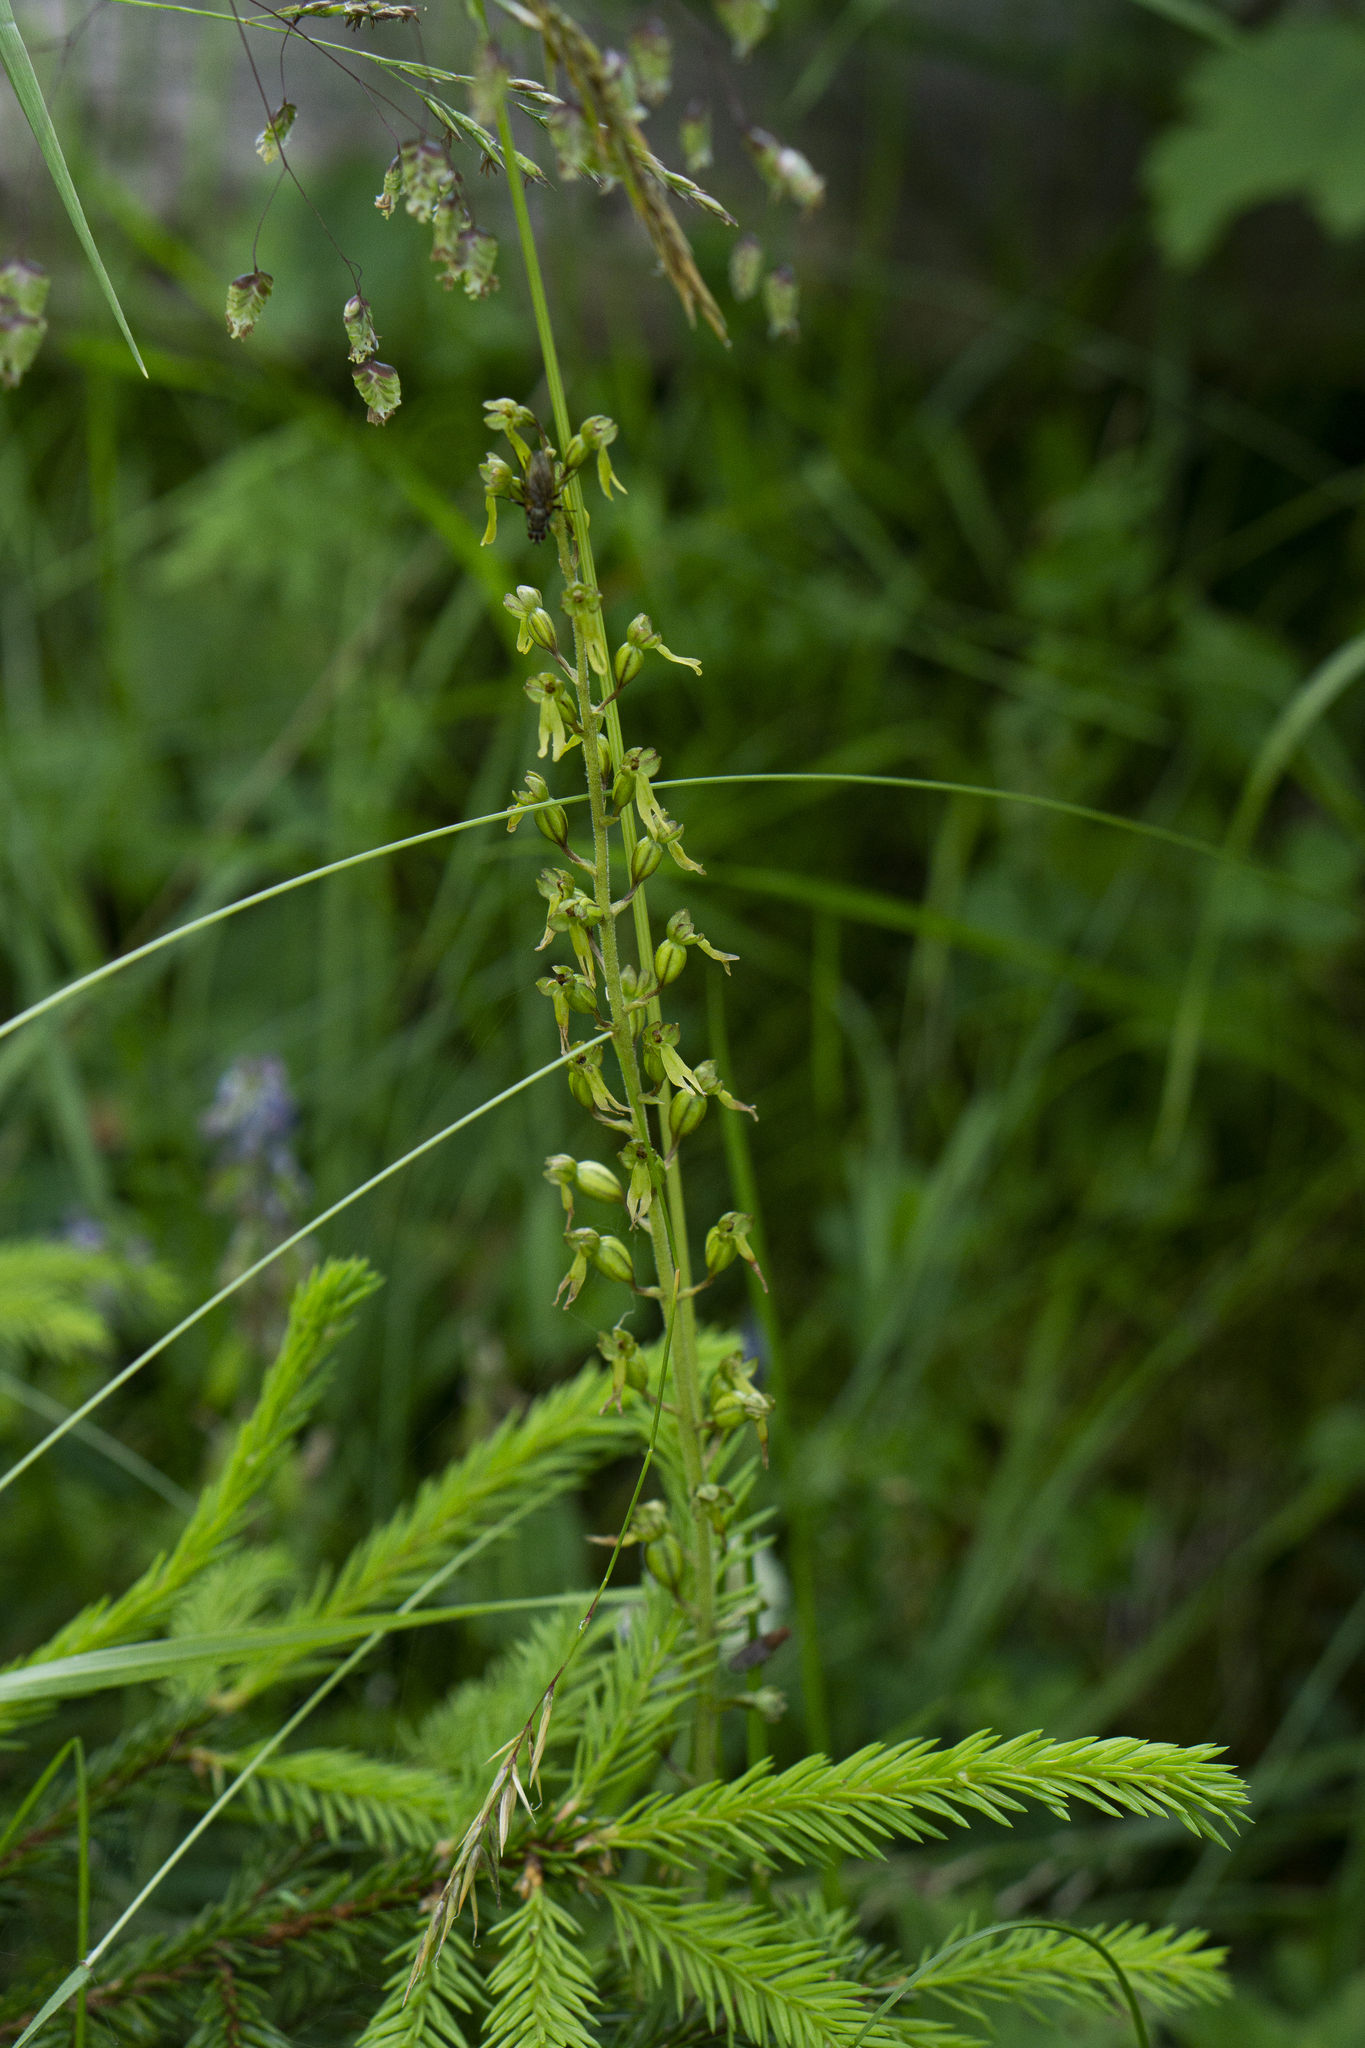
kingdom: Plantae
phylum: Tracheophyta
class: Liliopsida
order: Asparagales
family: Orchidaceae
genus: Neottia
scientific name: Neottia ovata
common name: Common twayblade
